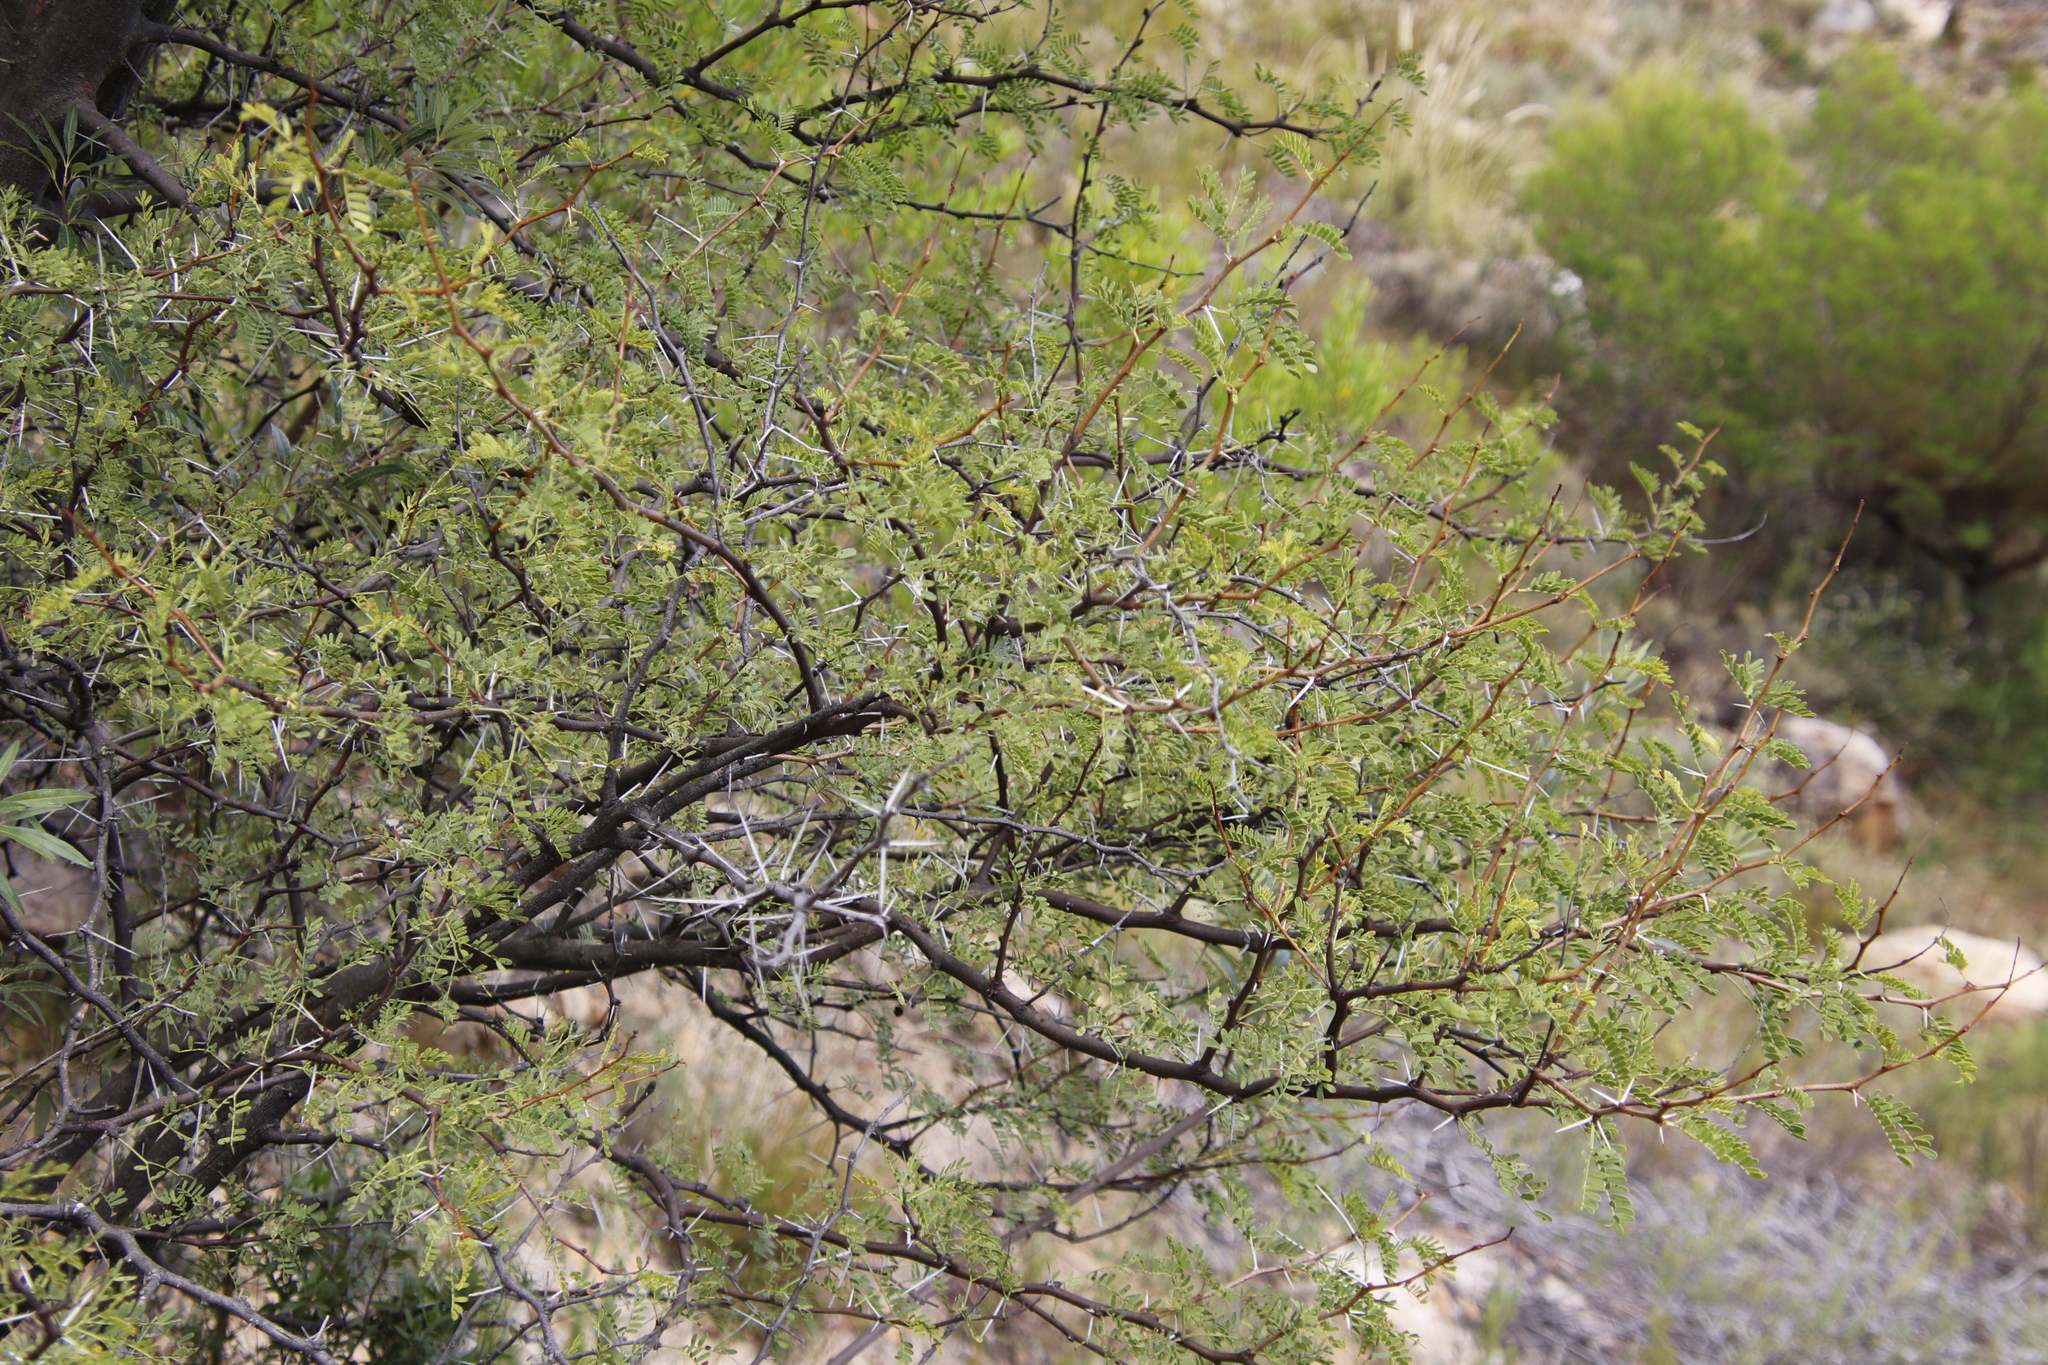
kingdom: Plantae
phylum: Tracheophyta
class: Magnoliopsida
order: Fabales
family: Fabaceae
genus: Vachellia
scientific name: Vachellia karroo
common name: Sweet thorn
